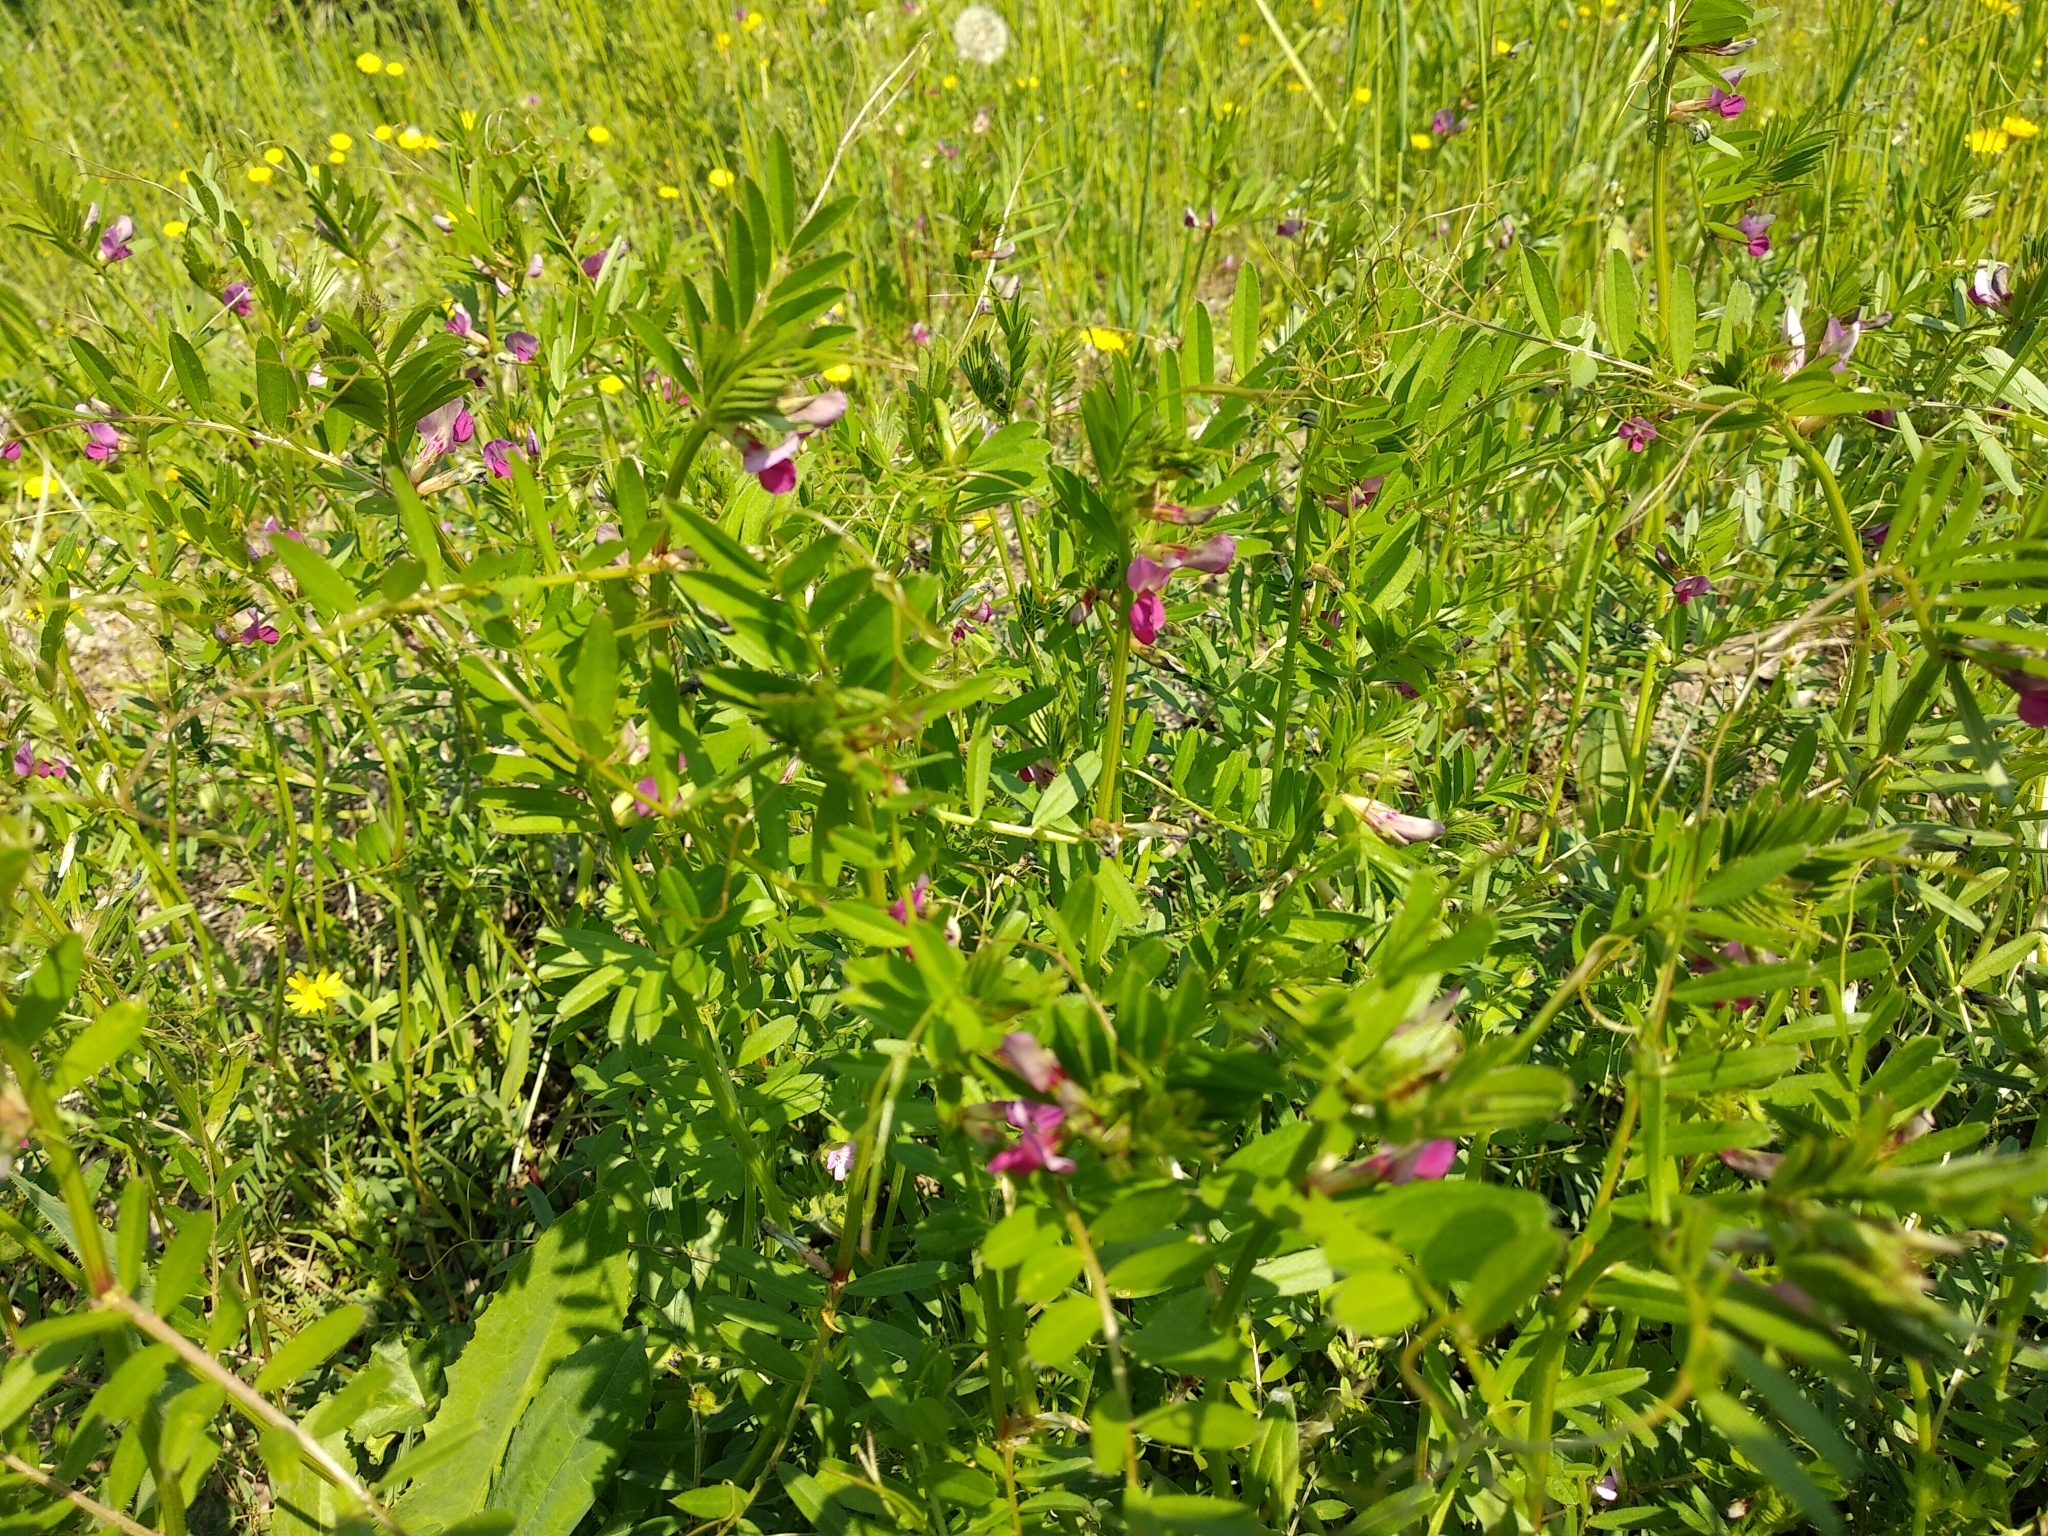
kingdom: Plantae
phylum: Tracheophyta
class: Magnoliopsida
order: Fabales
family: Fabaceae
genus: Vicia
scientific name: Vicia sativa
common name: Garden vetch
